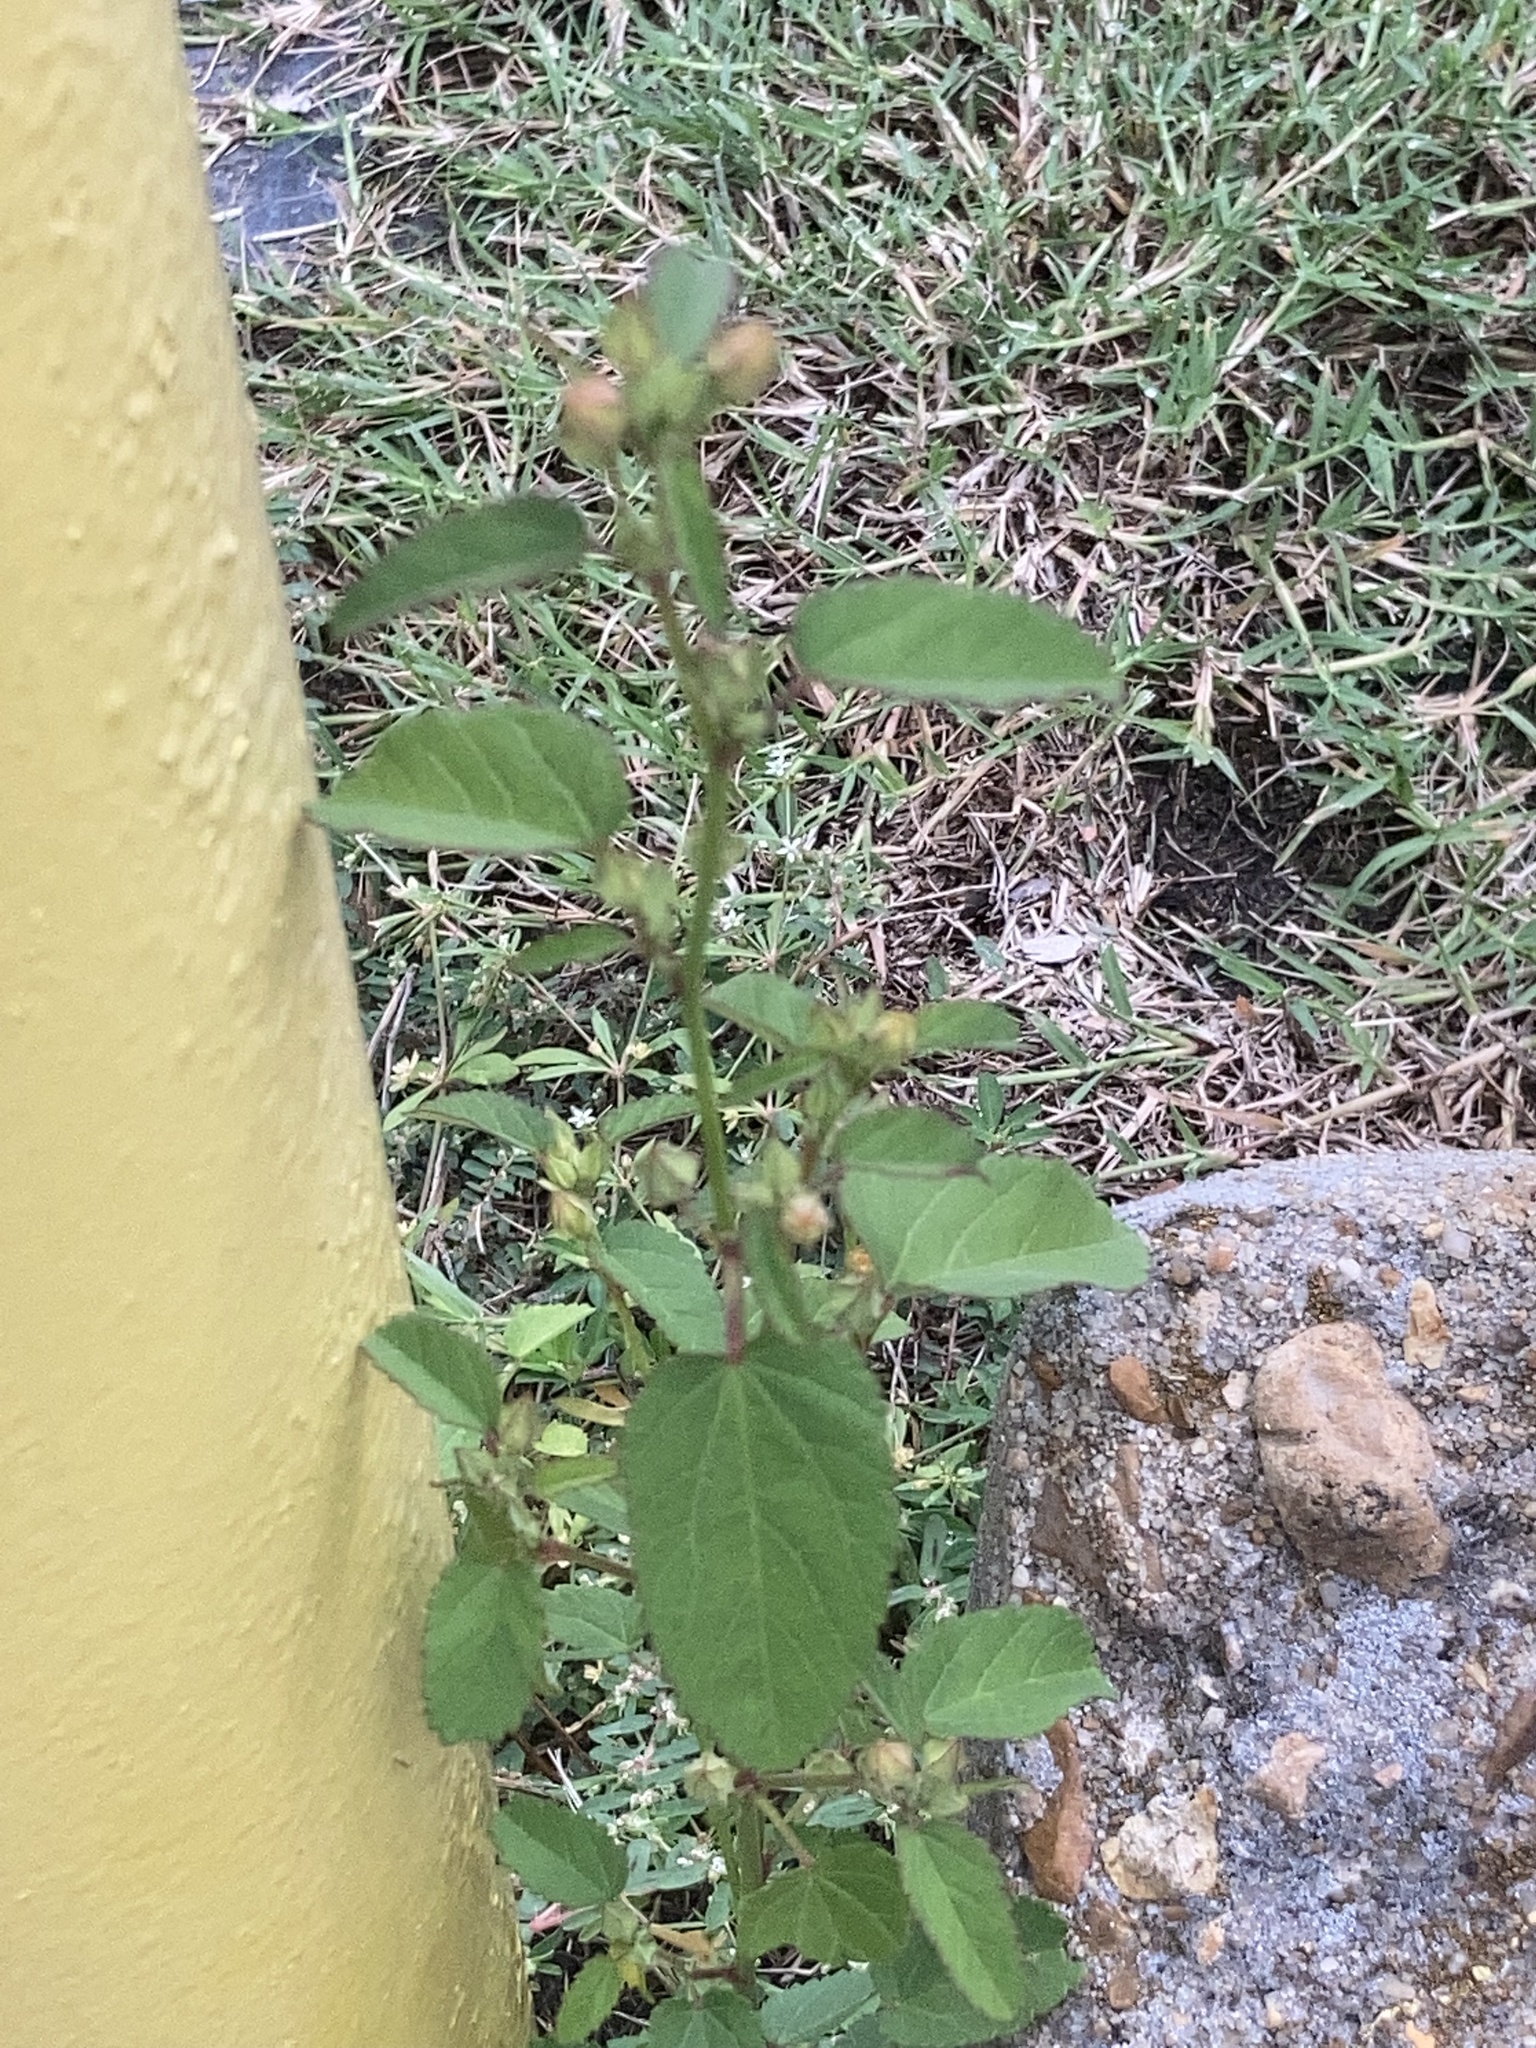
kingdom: Plantae
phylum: Tracheophyta
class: Magnoliopsida
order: Malvales
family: Malvaceae
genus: Sida
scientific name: Sida spinosa
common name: Prickly fanpetals
